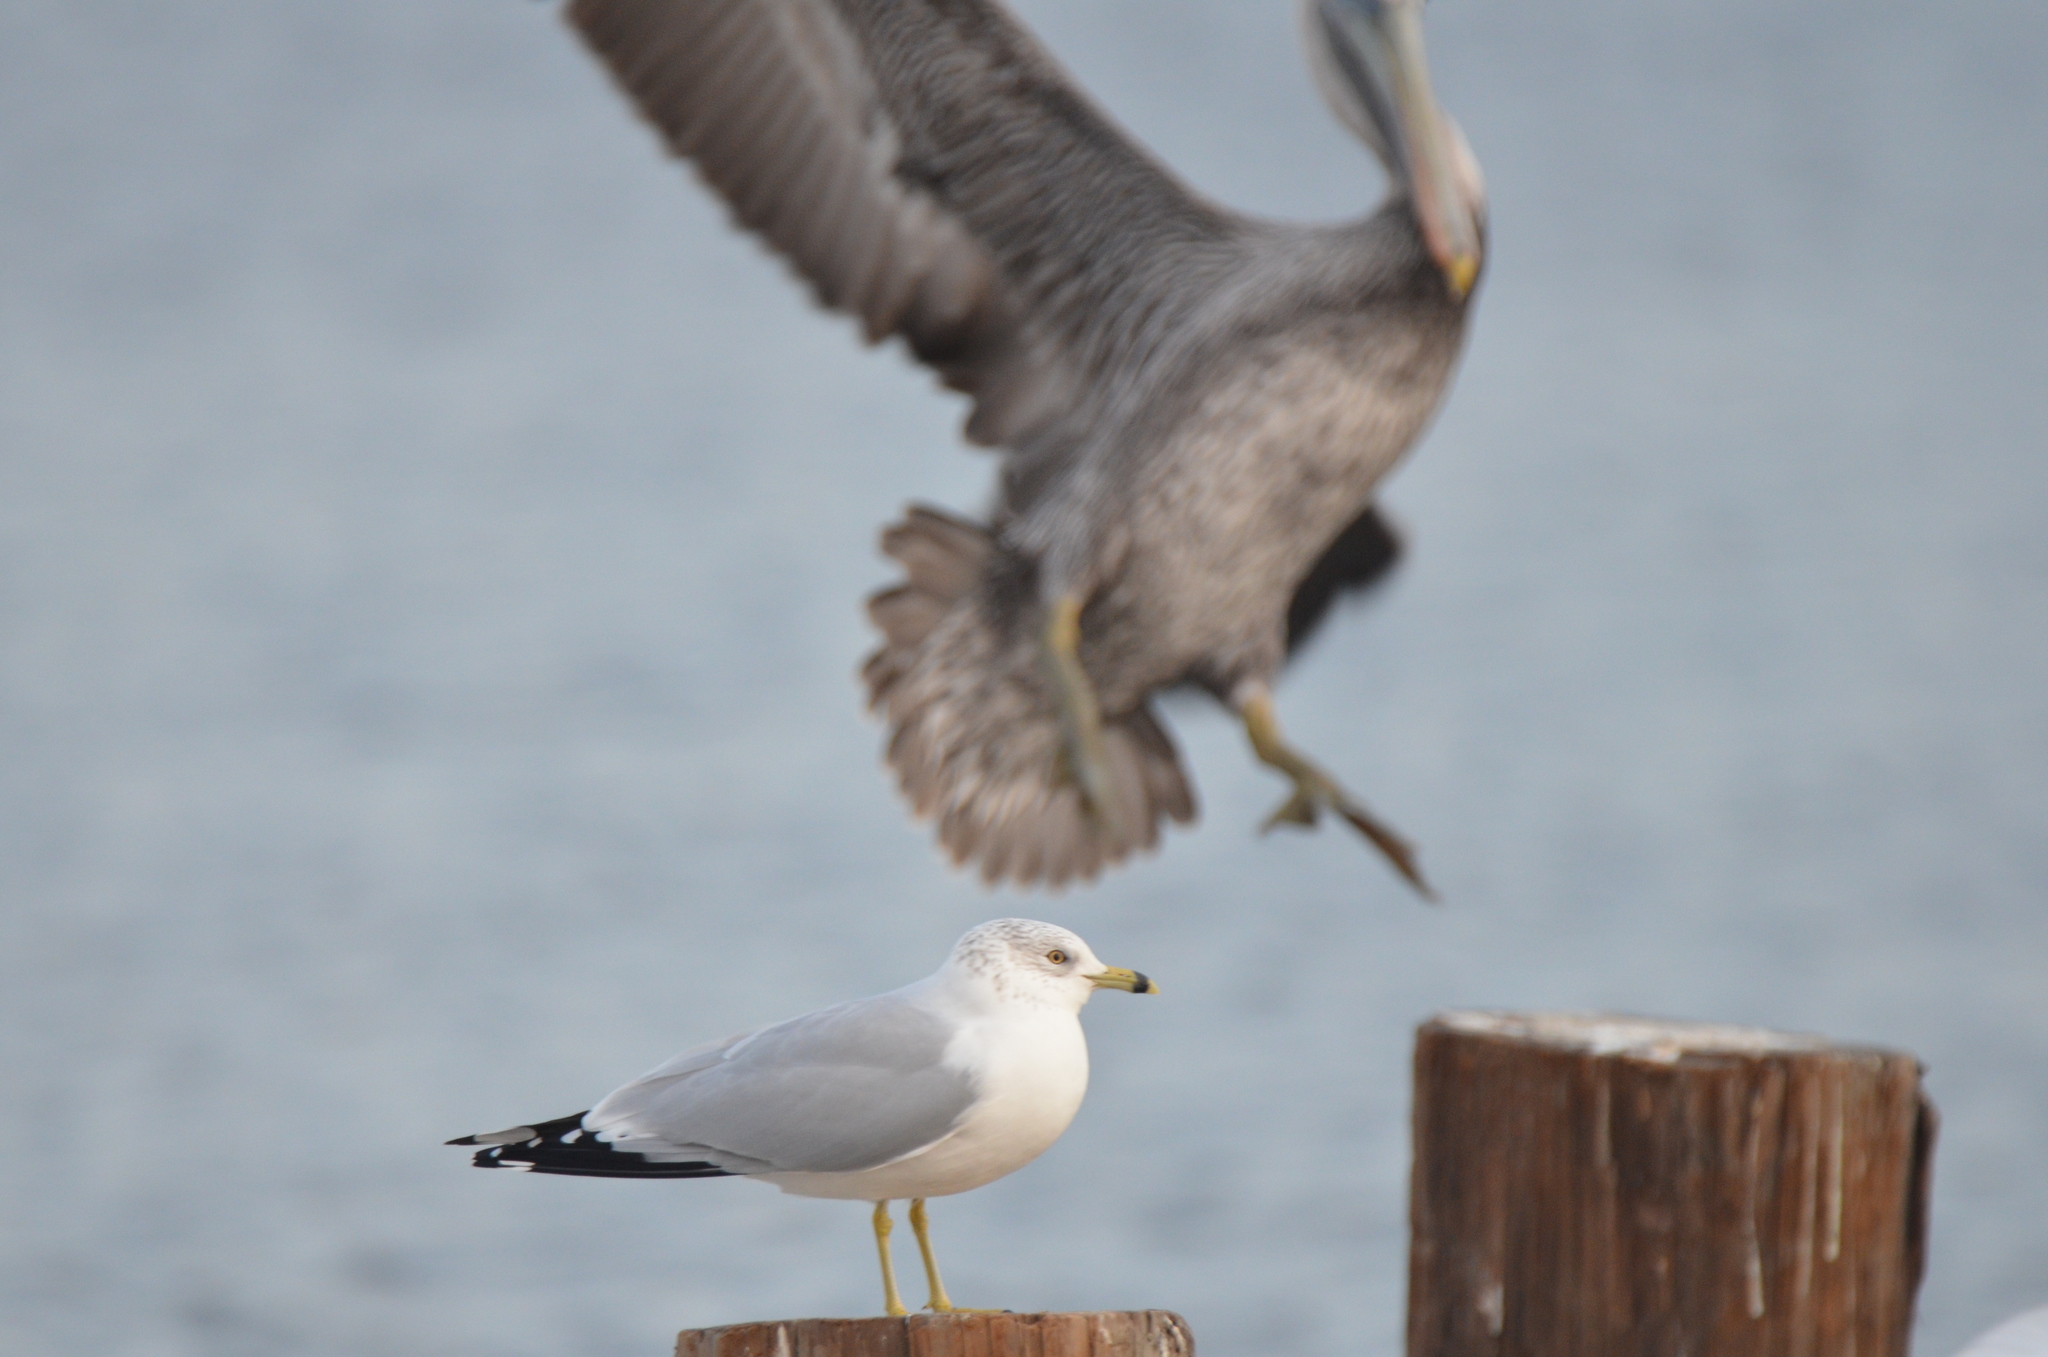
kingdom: Animalia
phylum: Chordata
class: Aves
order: Charadriiformes
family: Laridae
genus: Larus
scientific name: Larus delawarensis
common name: Ring-billed gull
